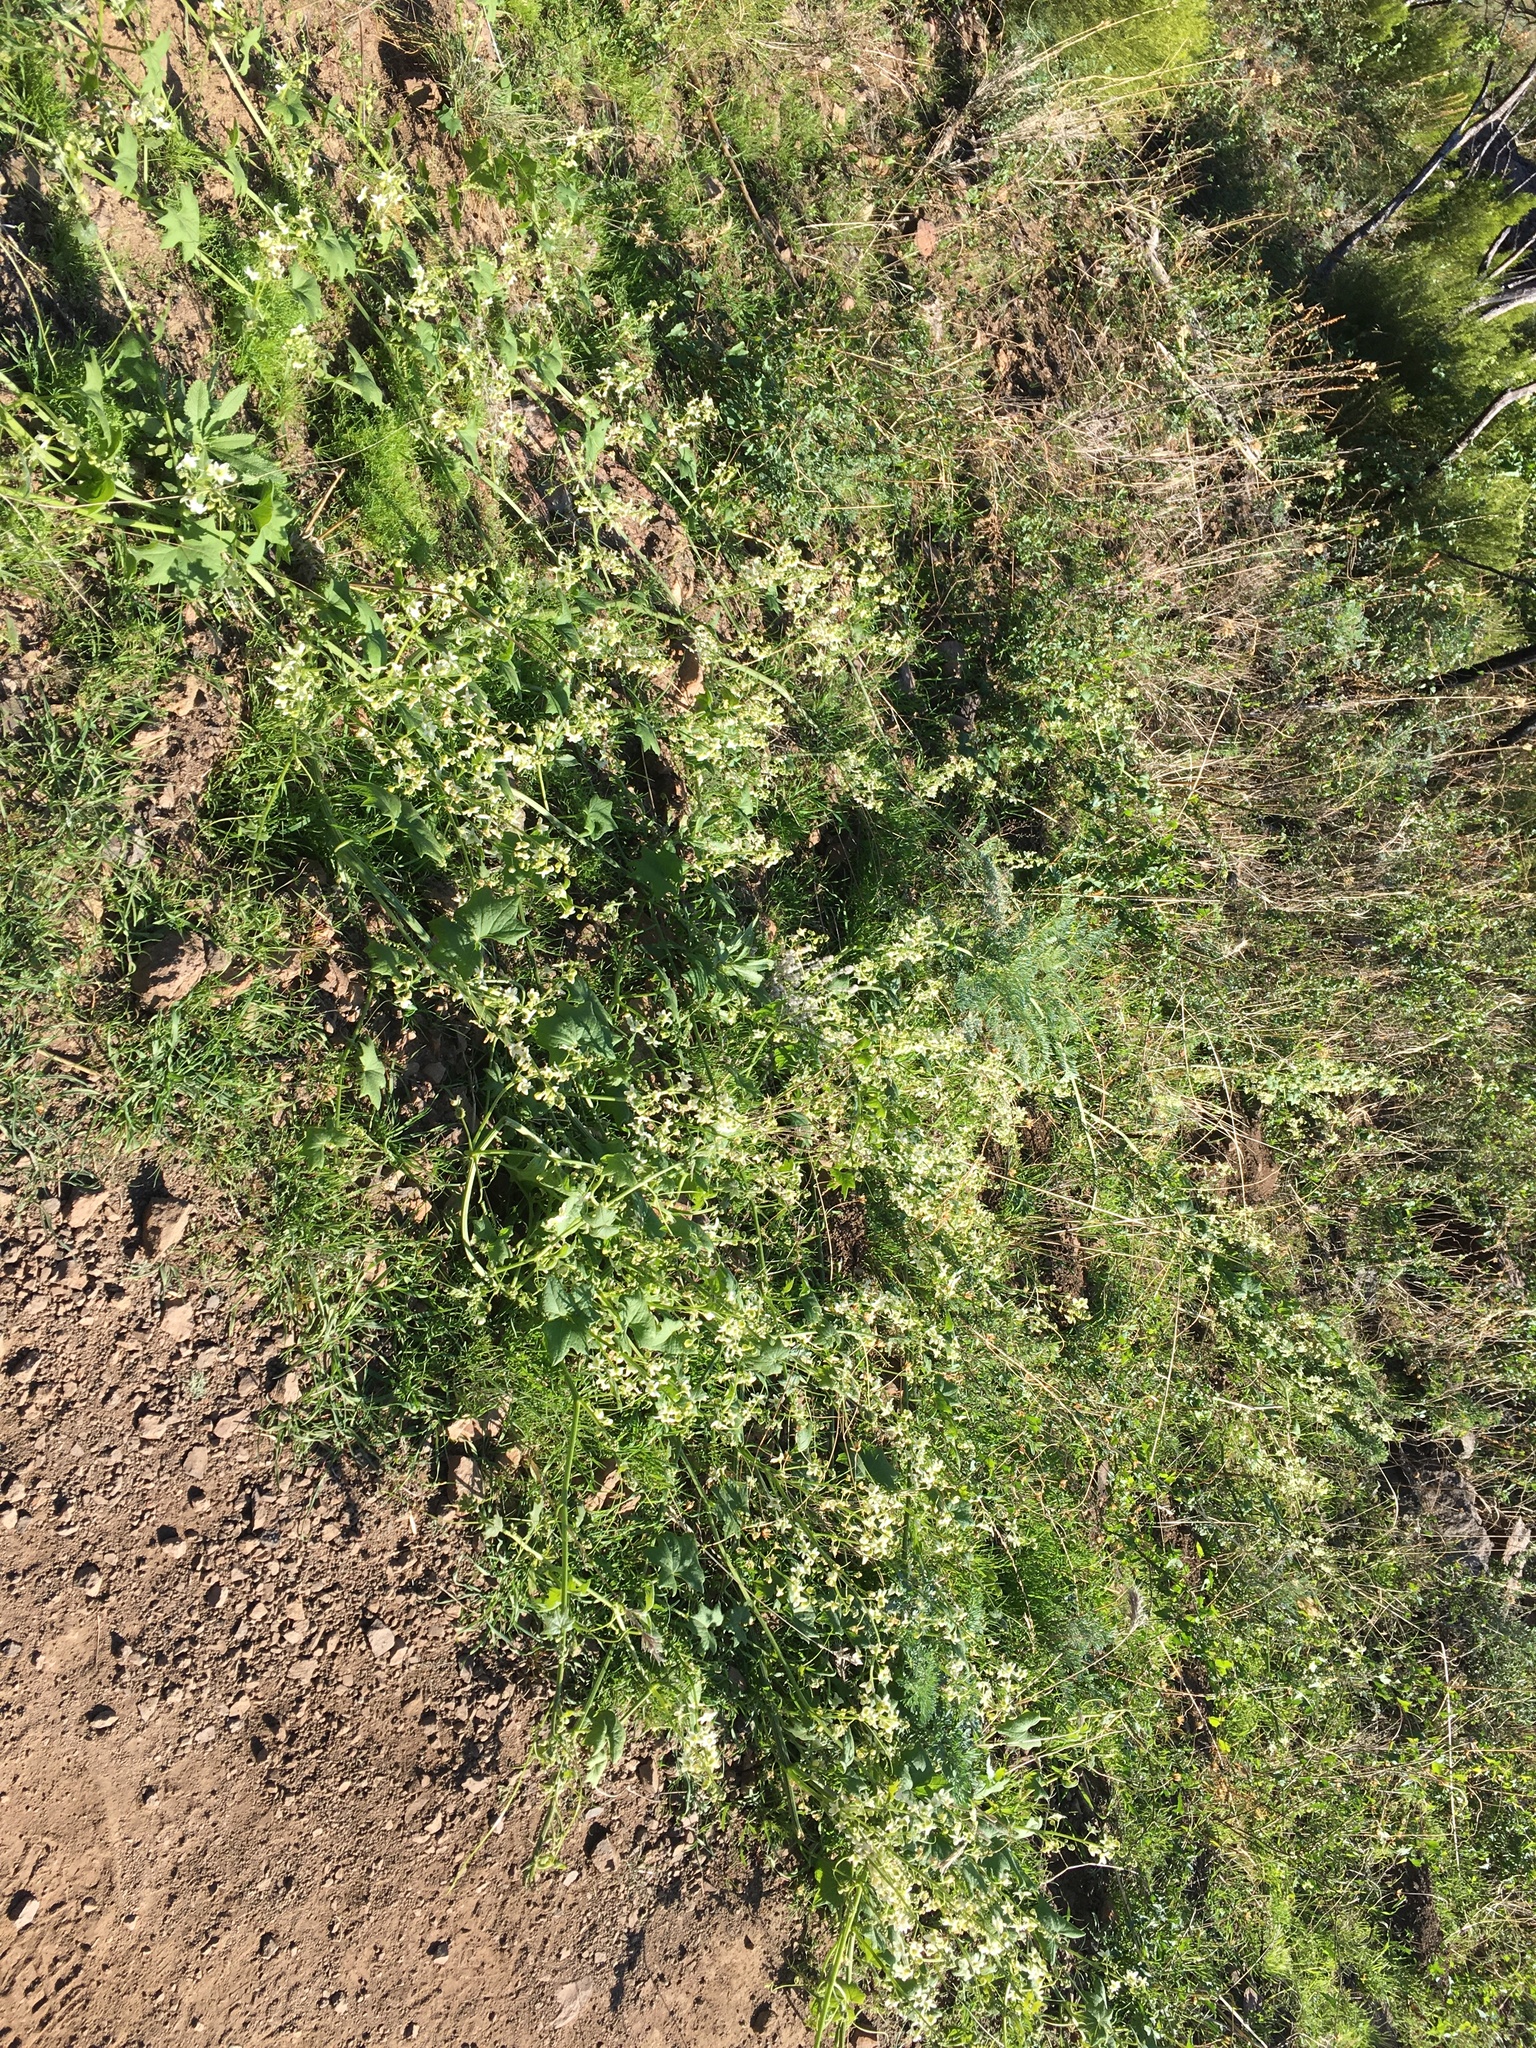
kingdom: Plantae
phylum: Tracheophyta
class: Magnoliopsida
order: Cucurbitales
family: Cucurbitaceae
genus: Marah
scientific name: Marah macrocarpa
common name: Cucamonga manroot
